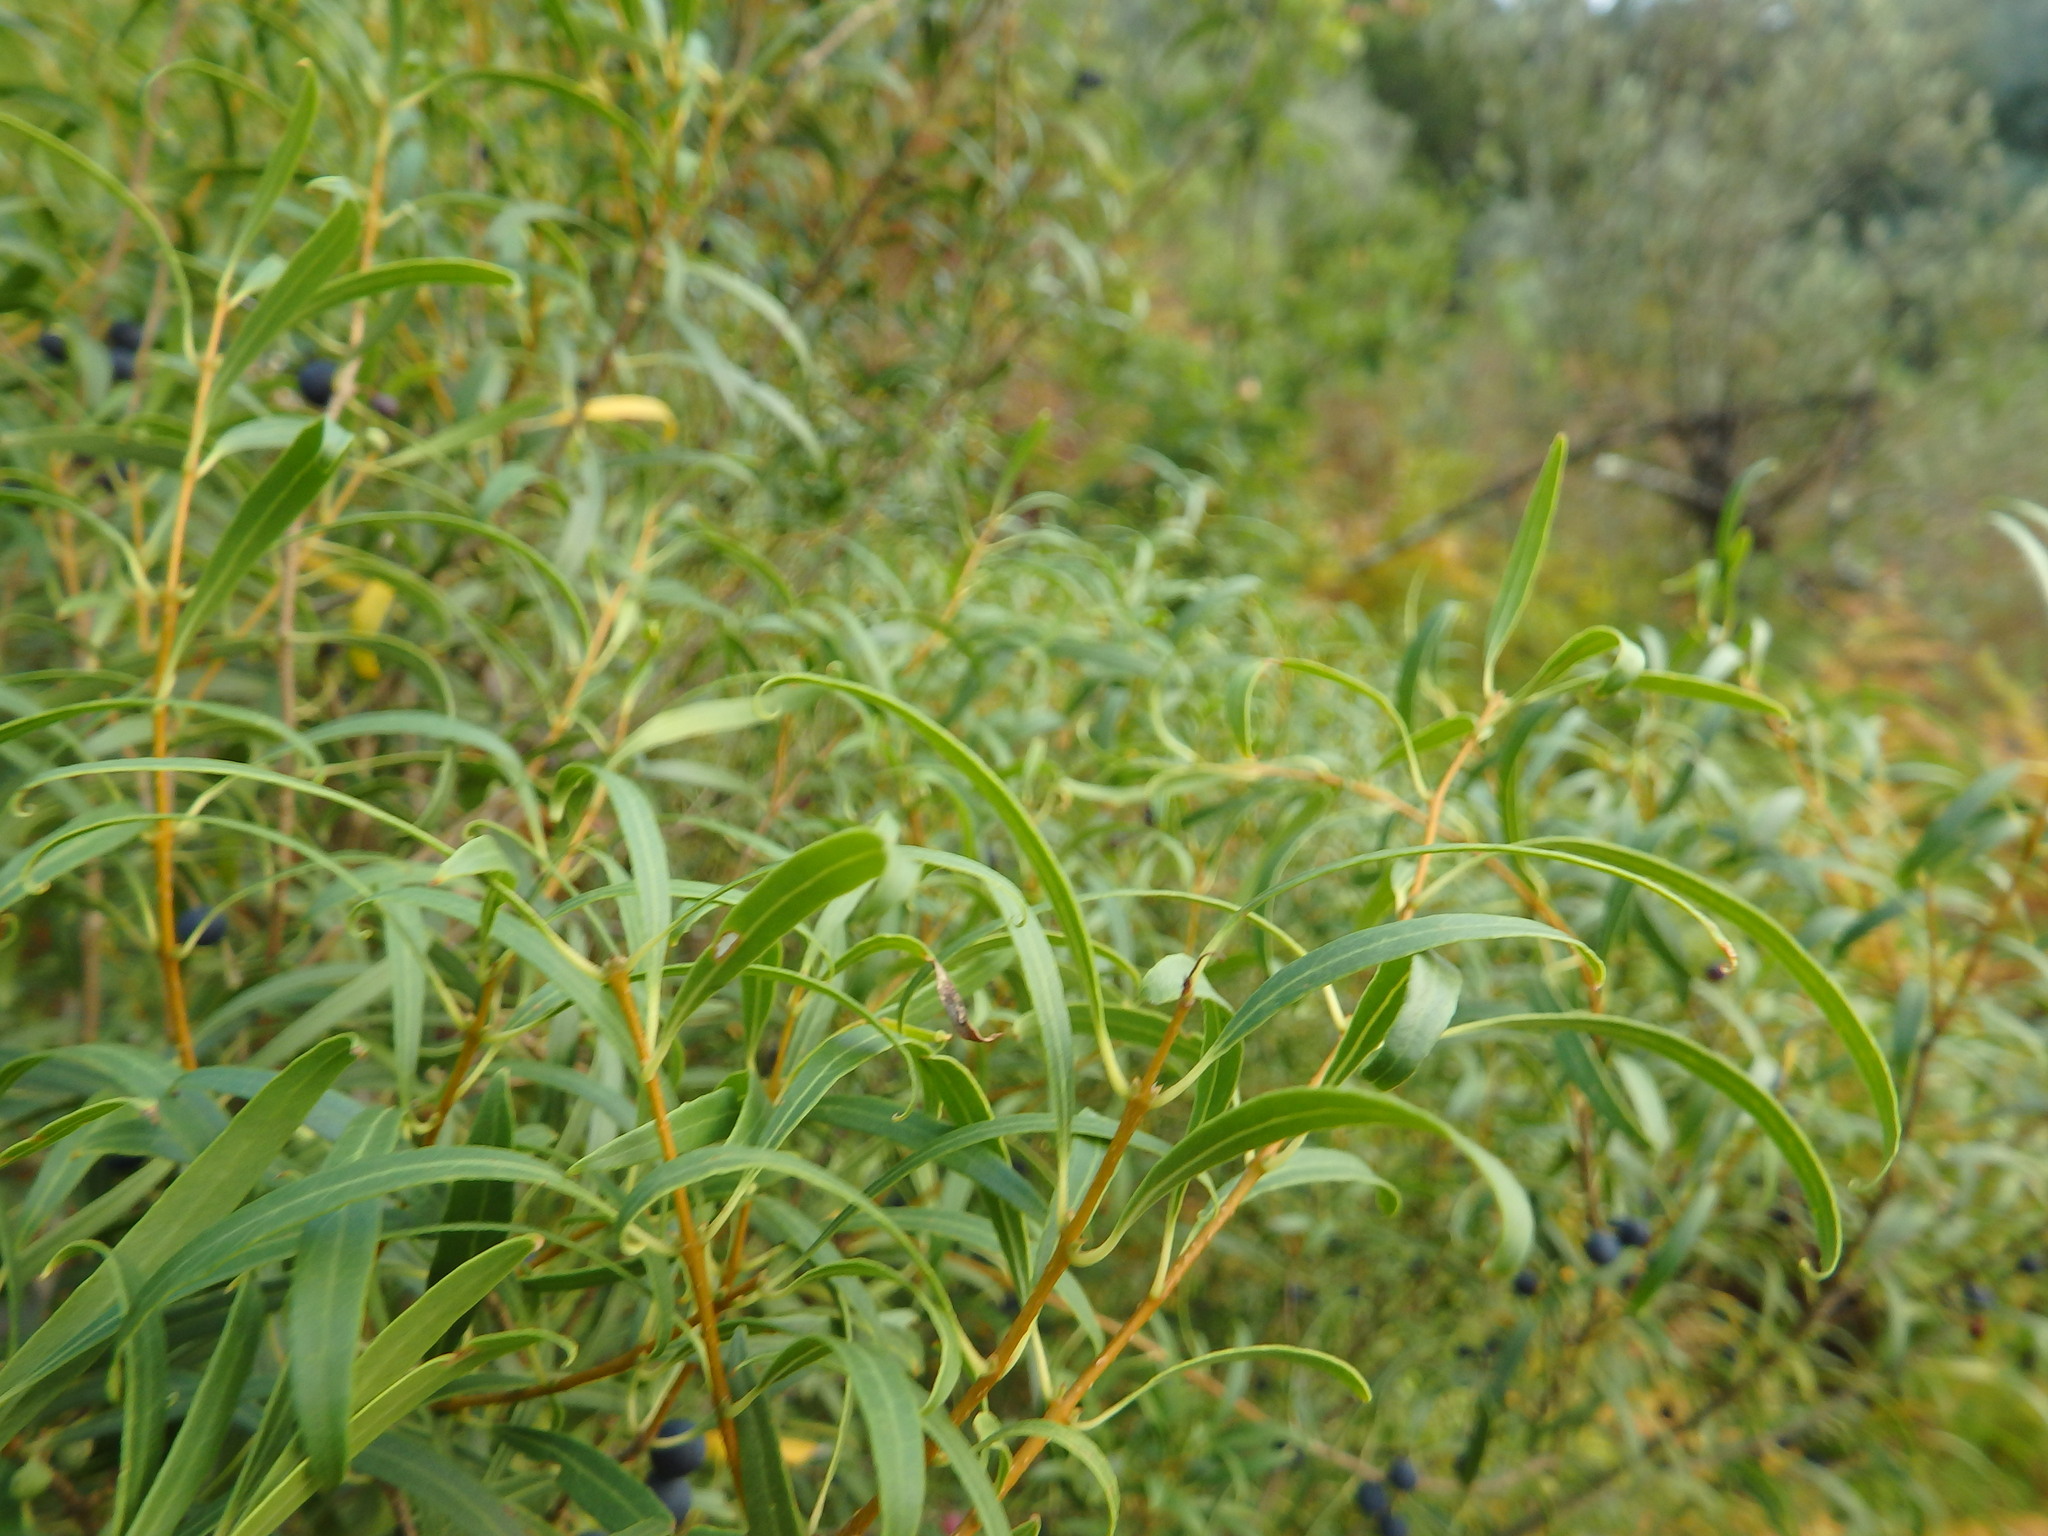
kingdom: Plantae
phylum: Tracheophyta
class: Magnoliopsida
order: Lamiales
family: Oleaceae
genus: Phillyrea
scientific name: Phillyrea angustifolia
